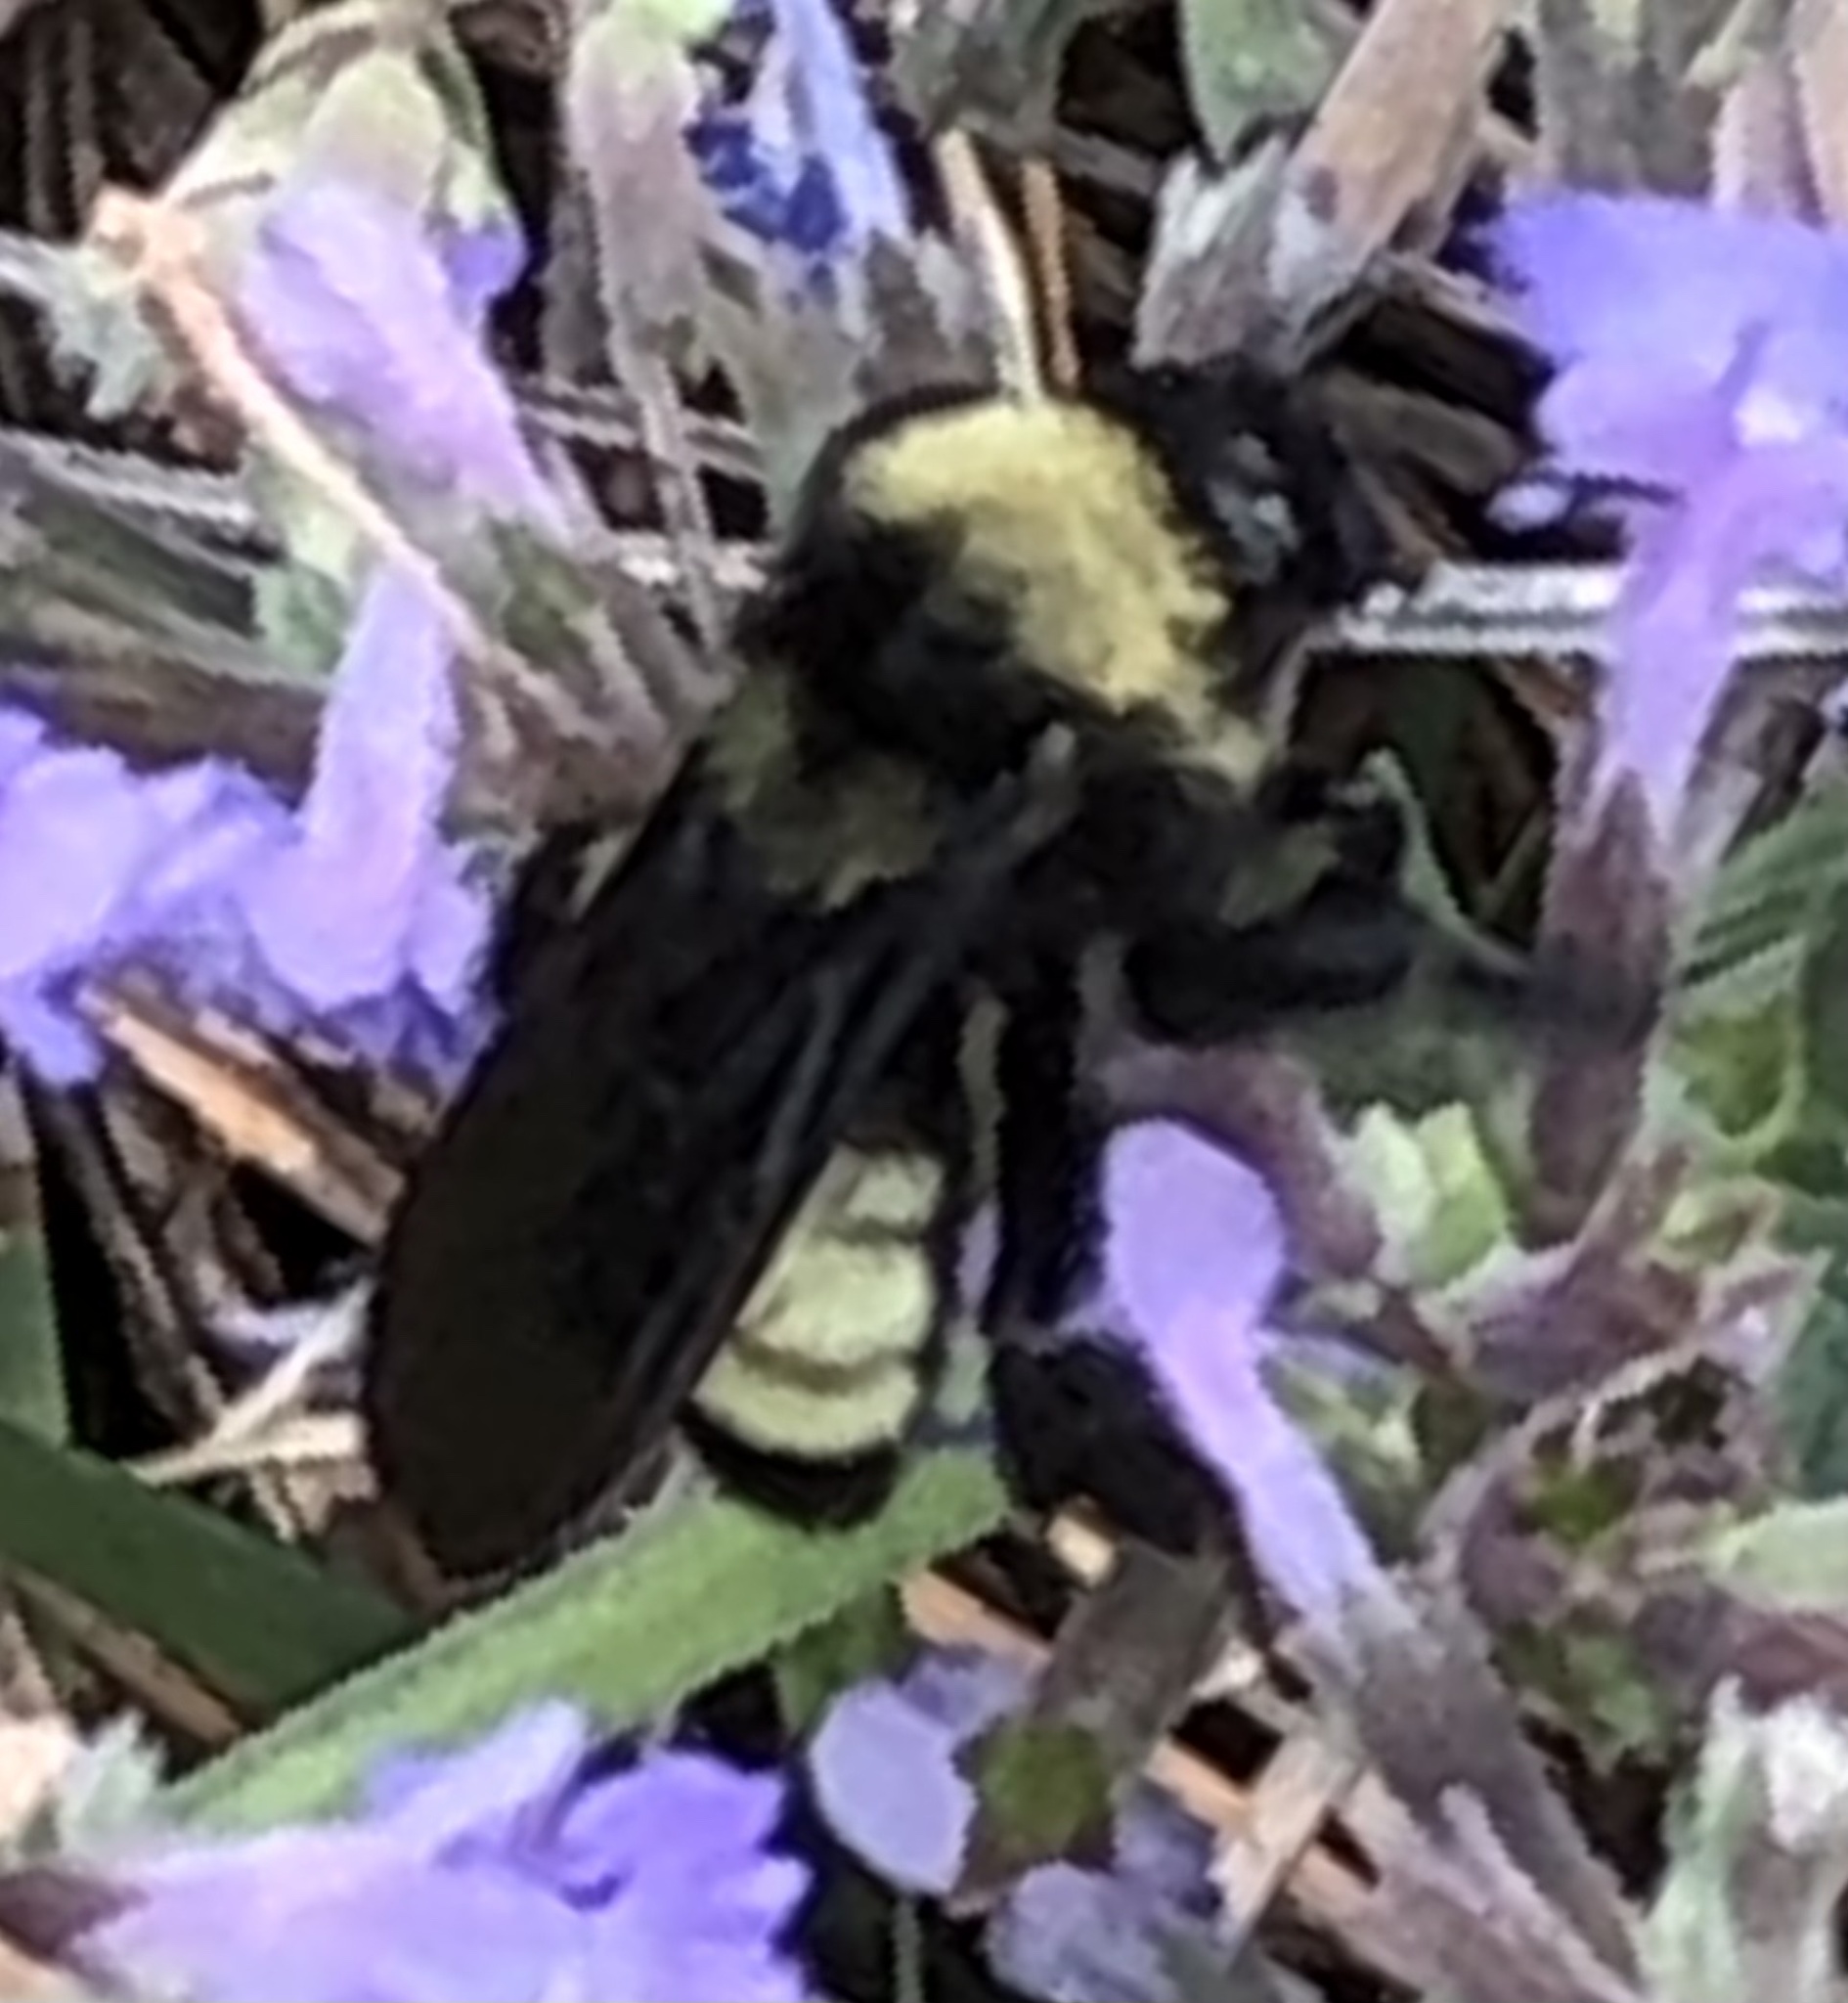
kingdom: Animalia
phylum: Arthropoda
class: Insecta
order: Hymenoptera
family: Apidae
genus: Bombus
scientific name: Bombus pensylvanicus
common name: Bumble bee
